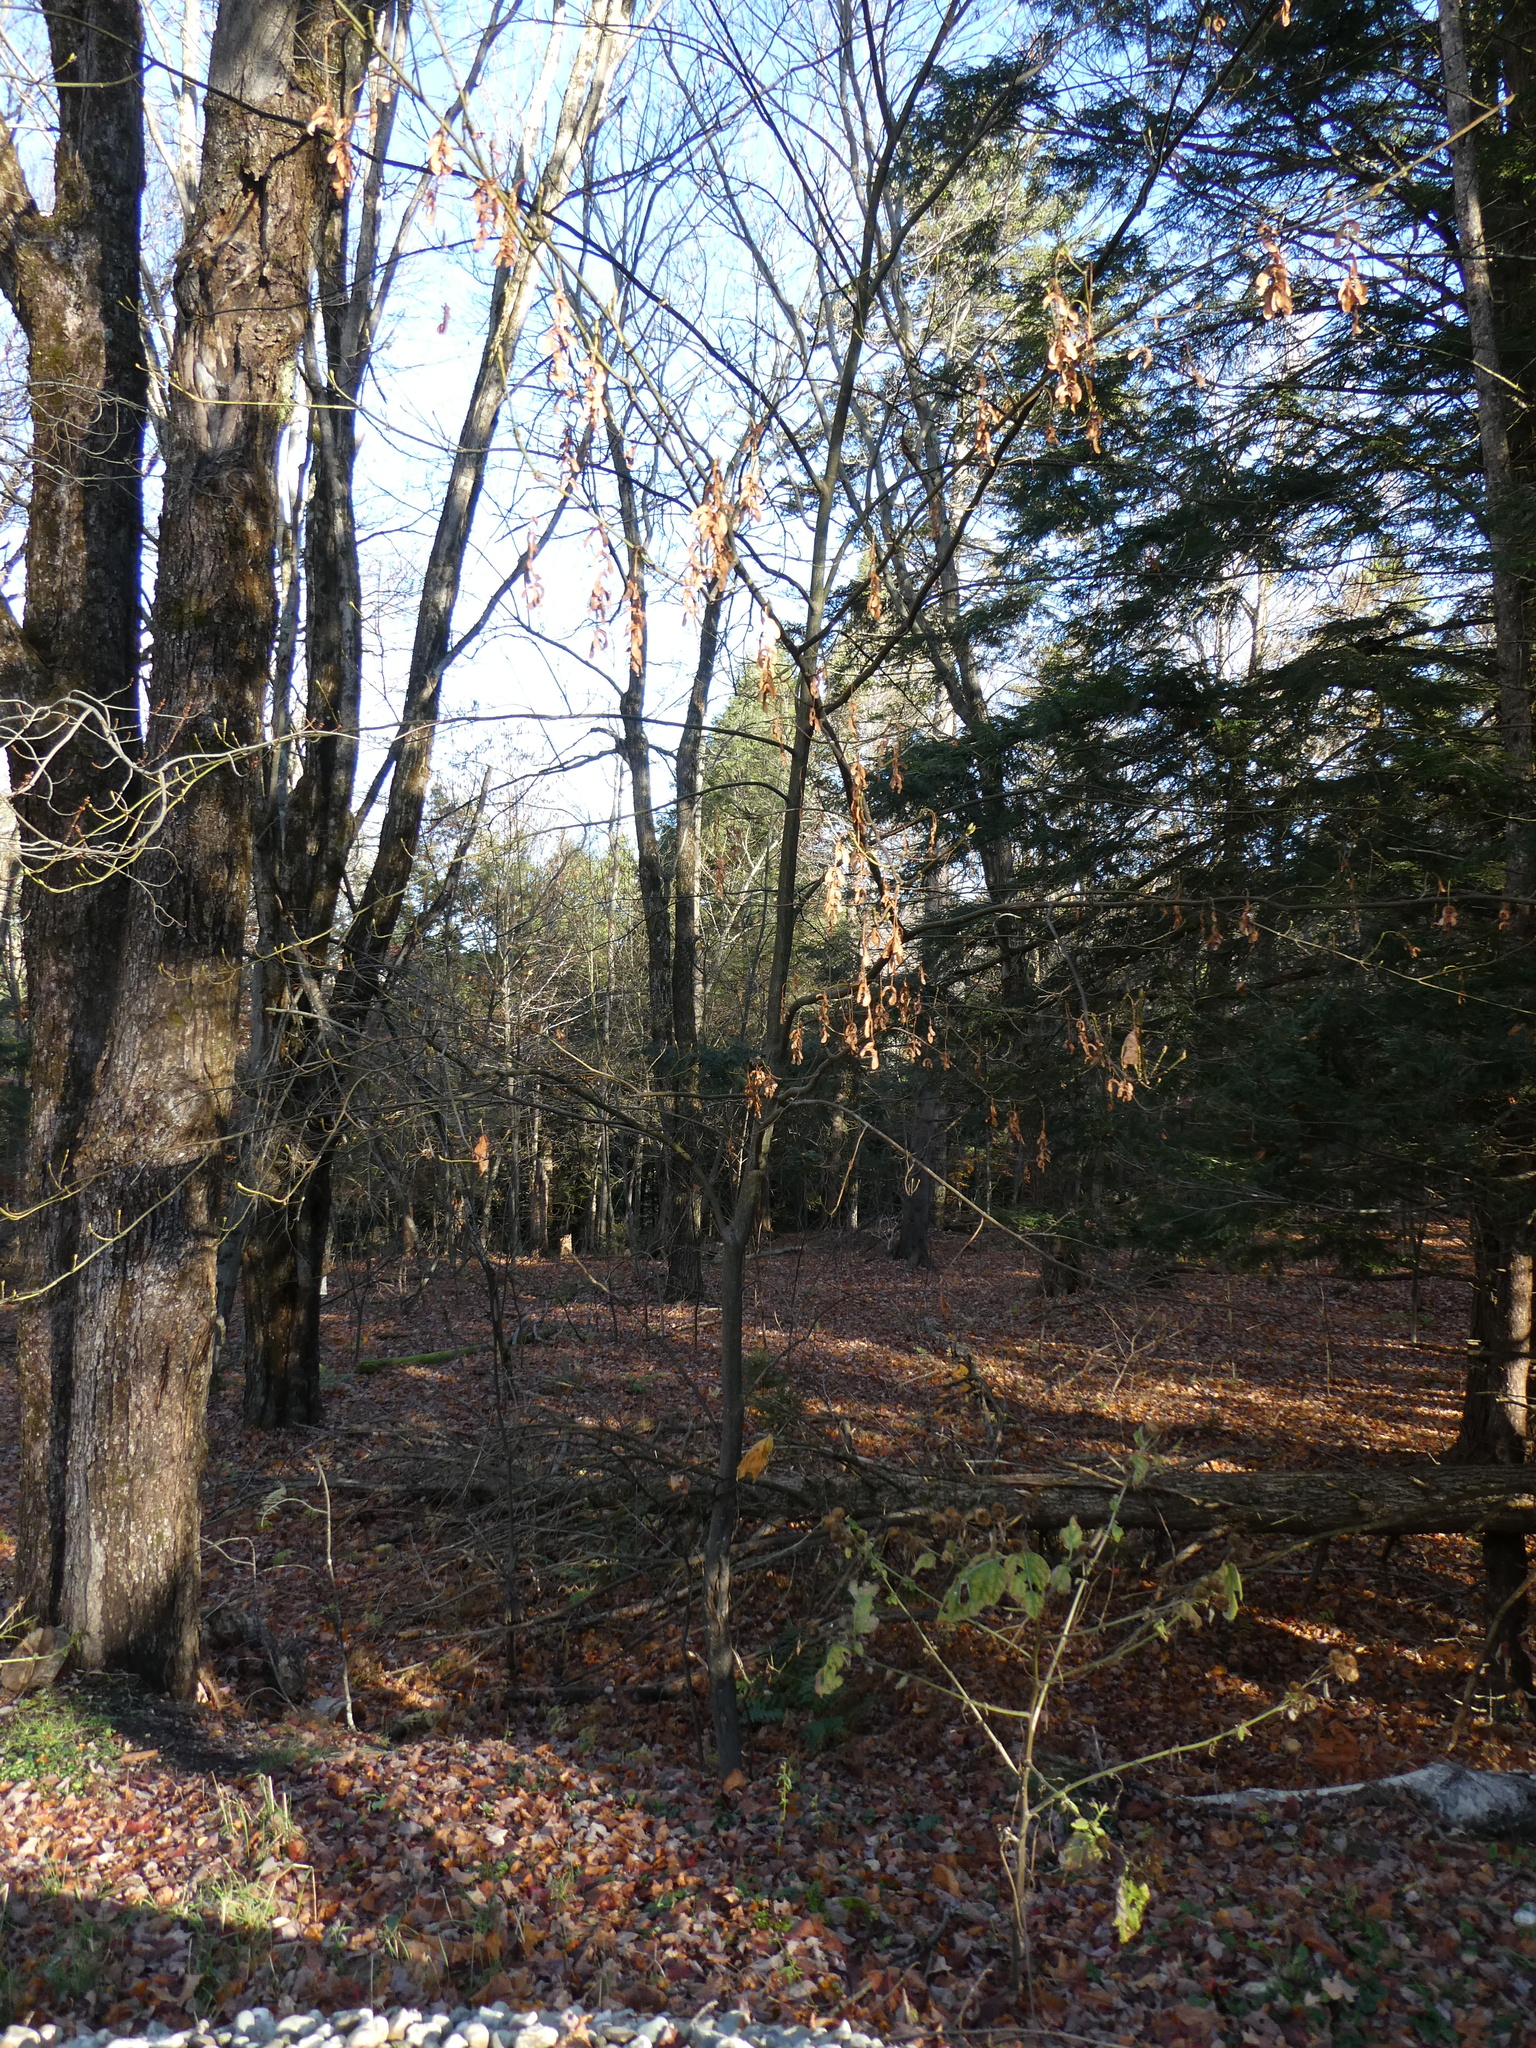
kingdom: Plantae
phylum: Tracheophyta
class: Magnoliopsida
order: Sapindales
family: Sapindaceae
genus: Acer
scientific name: Acer pensylvanicum
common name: Moosewood
